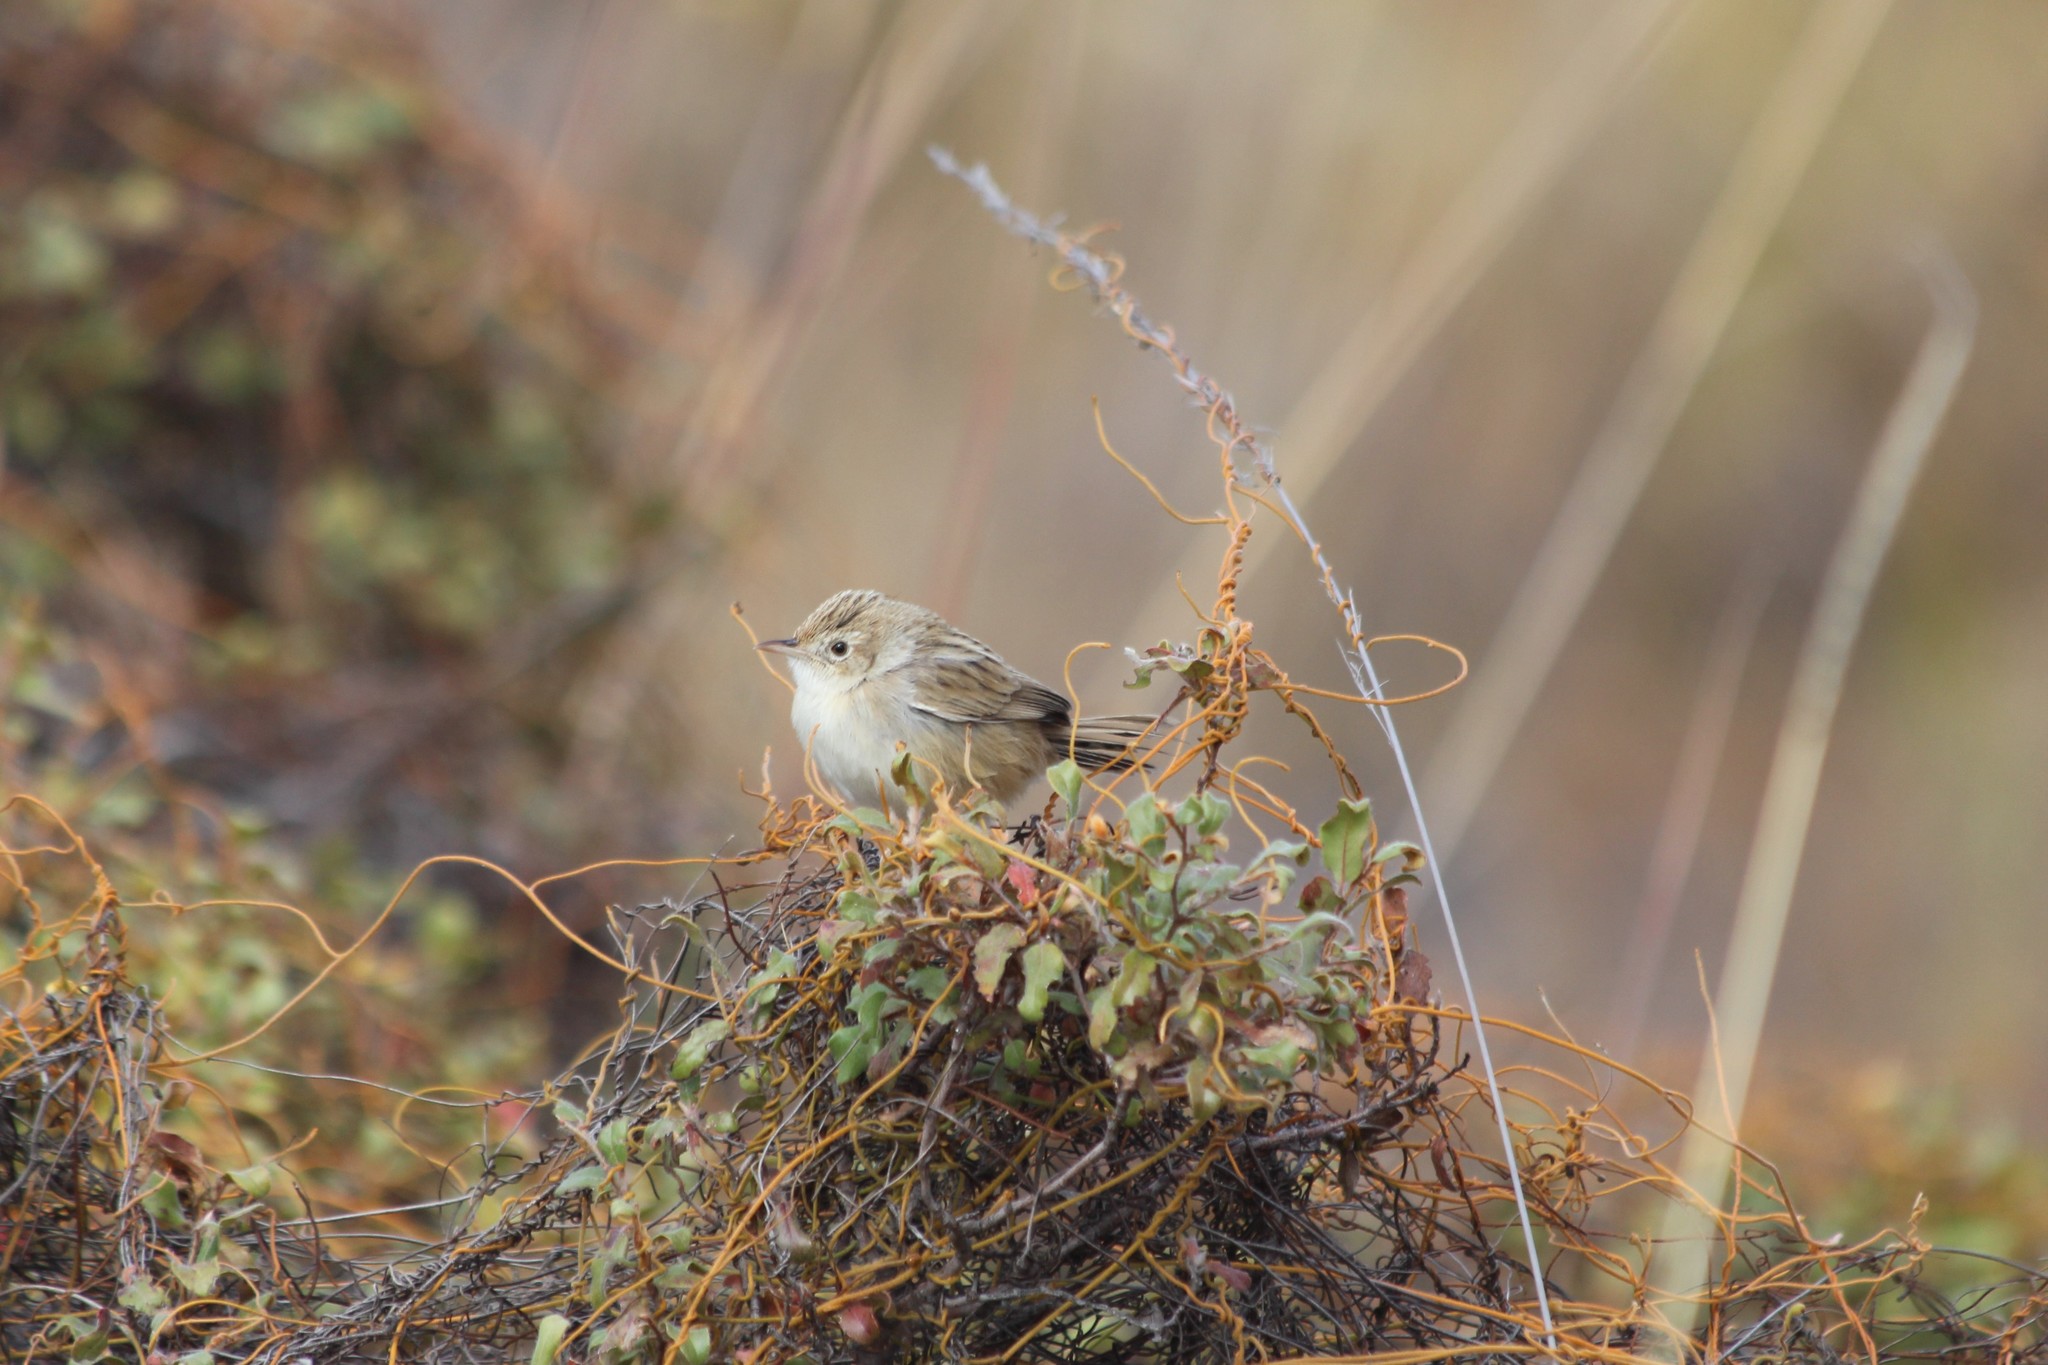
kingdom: Animalia
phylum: Chordata
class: Aves
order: Passeriformes
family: Cisticolidae
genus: Cisticola
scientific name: Cisticola cherina
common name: Madagascar cisticola
